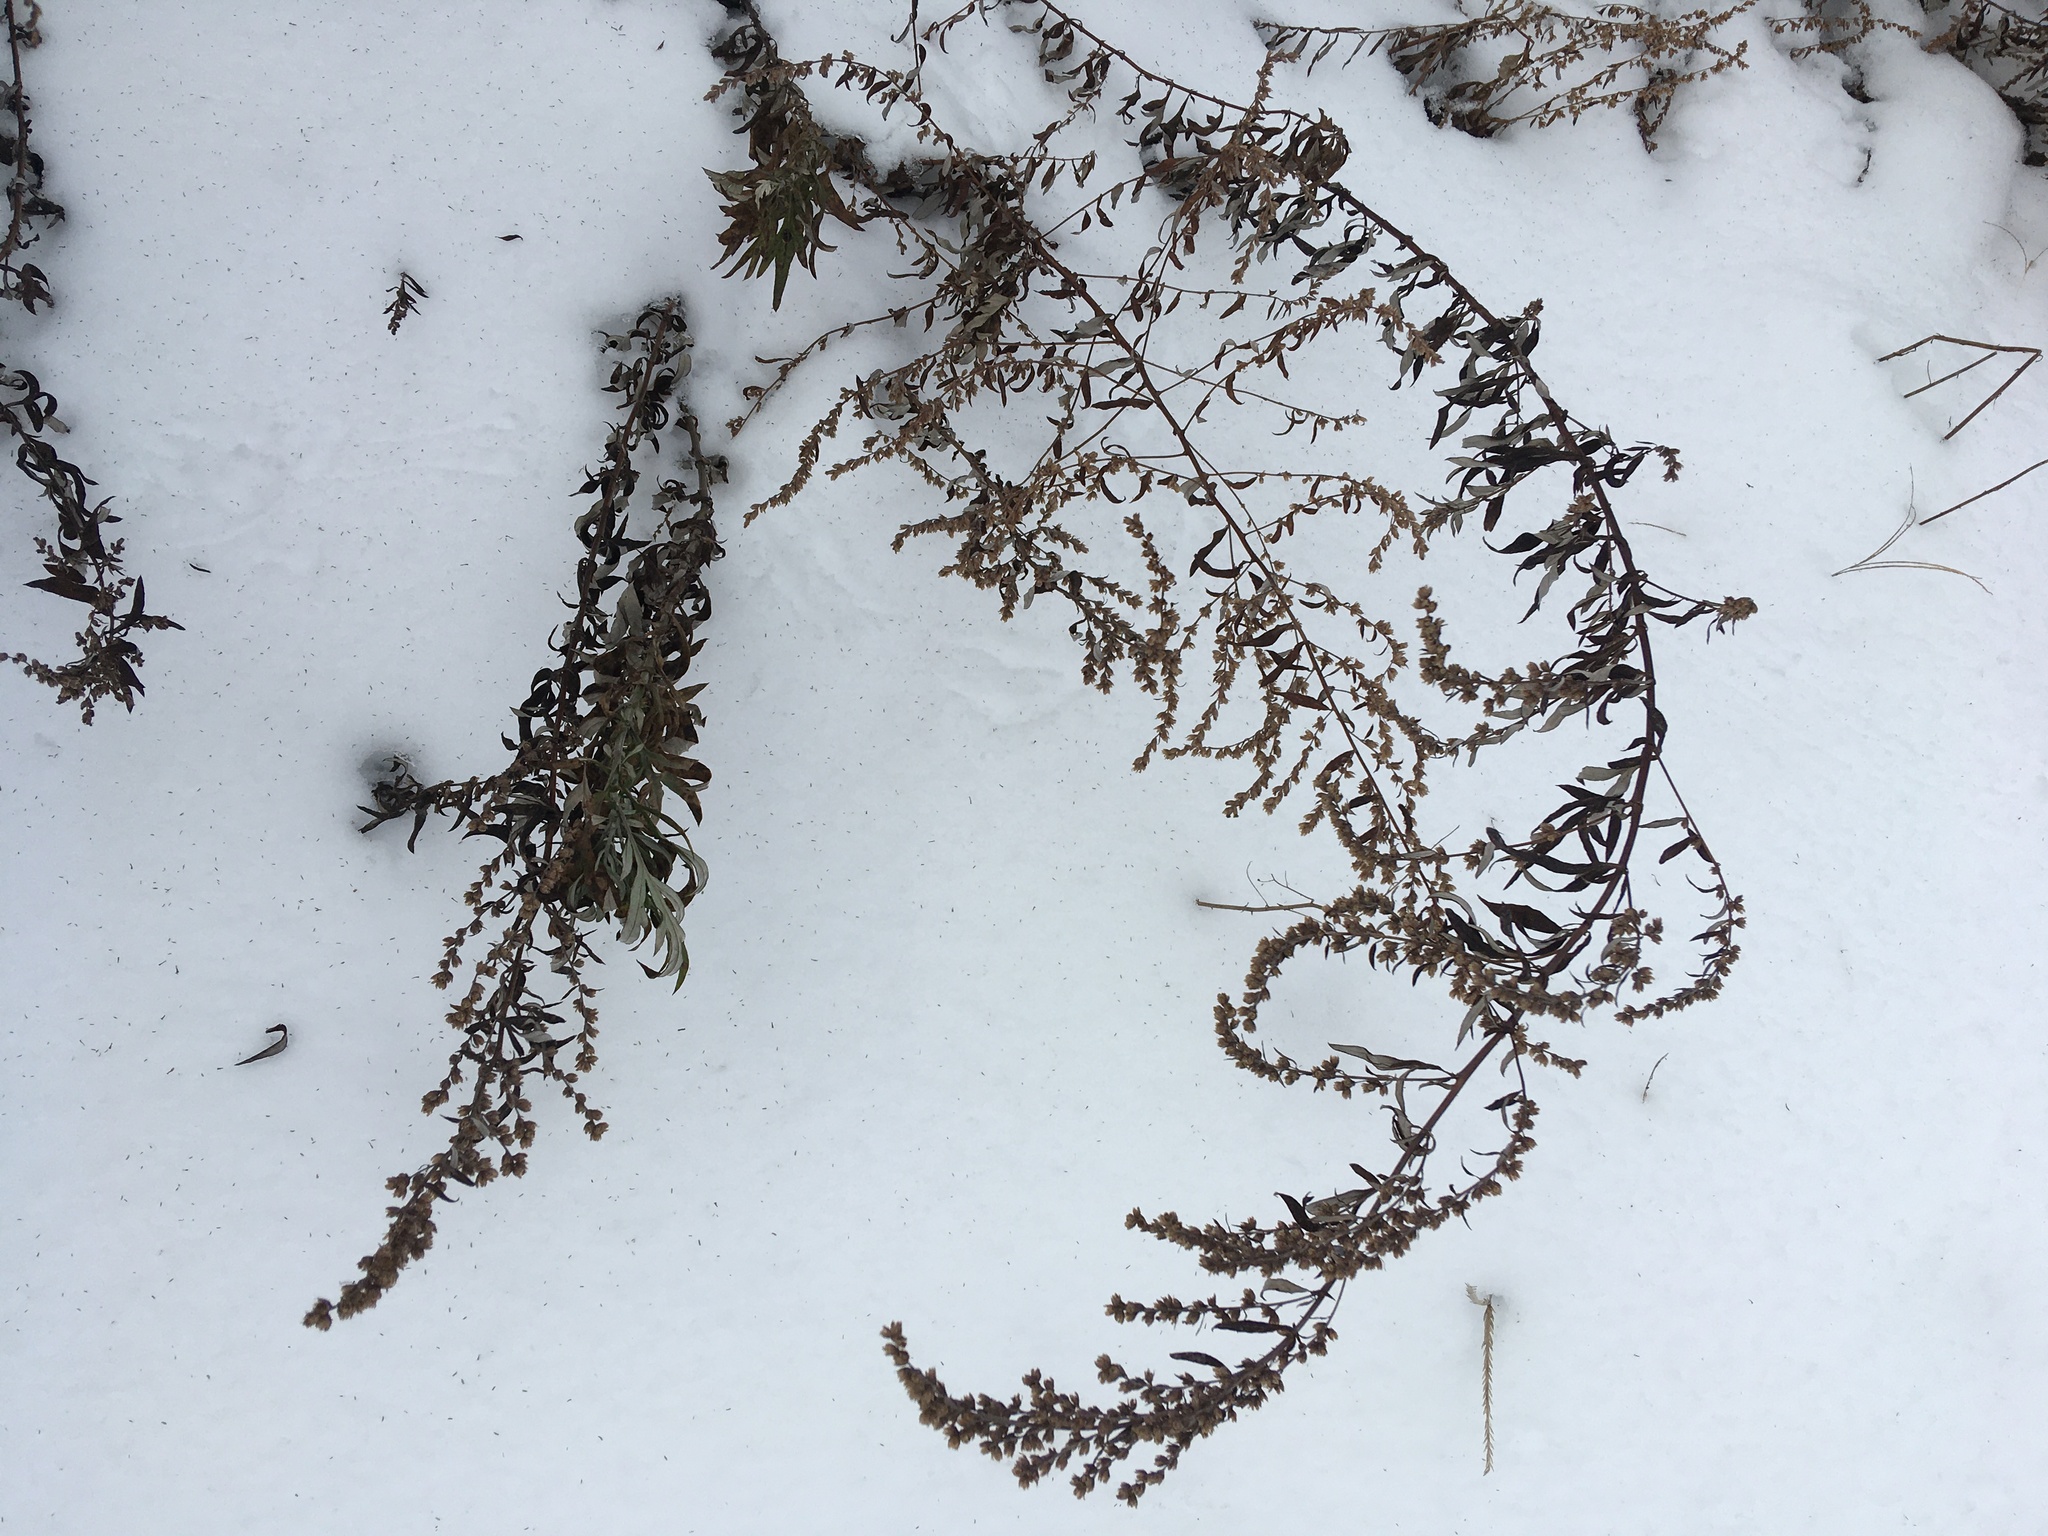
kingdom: Plantae
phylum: Tracheophyta
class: Magnoliopsida
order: Asterales
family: Asteraceae
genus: Artemisia
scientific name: Artemisia vulgaris
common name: Mugwort
